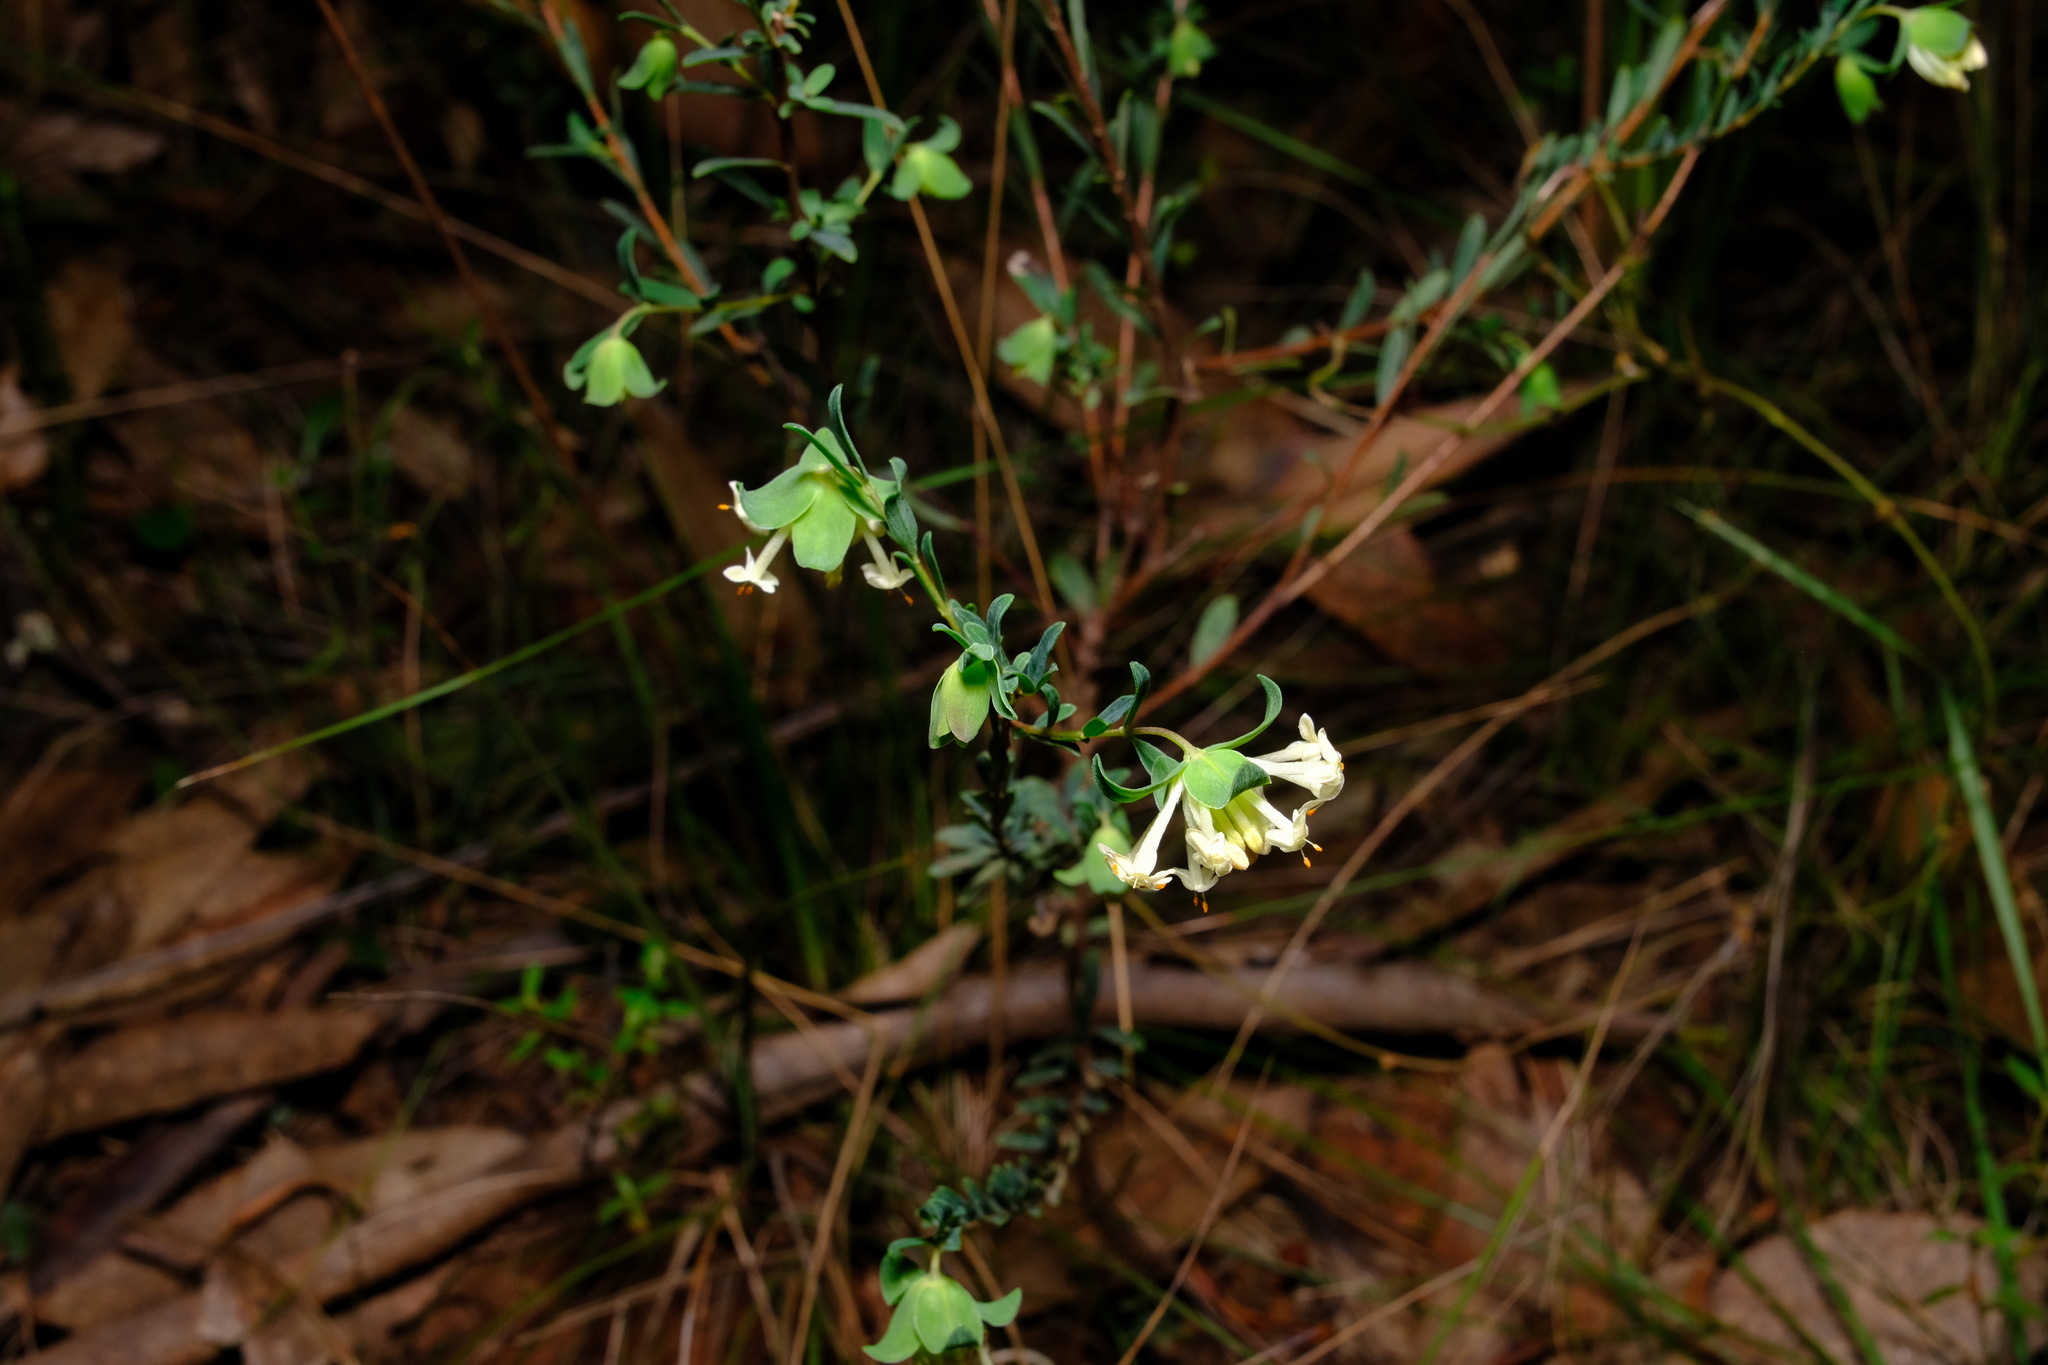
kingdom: Plantae
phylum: Tracheophyta
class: Magnoliopsida
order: Malvales
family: Thymelaeaceae
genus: Pimelea
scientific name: Pimelea linifolia
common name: Queen-of-the-bush
